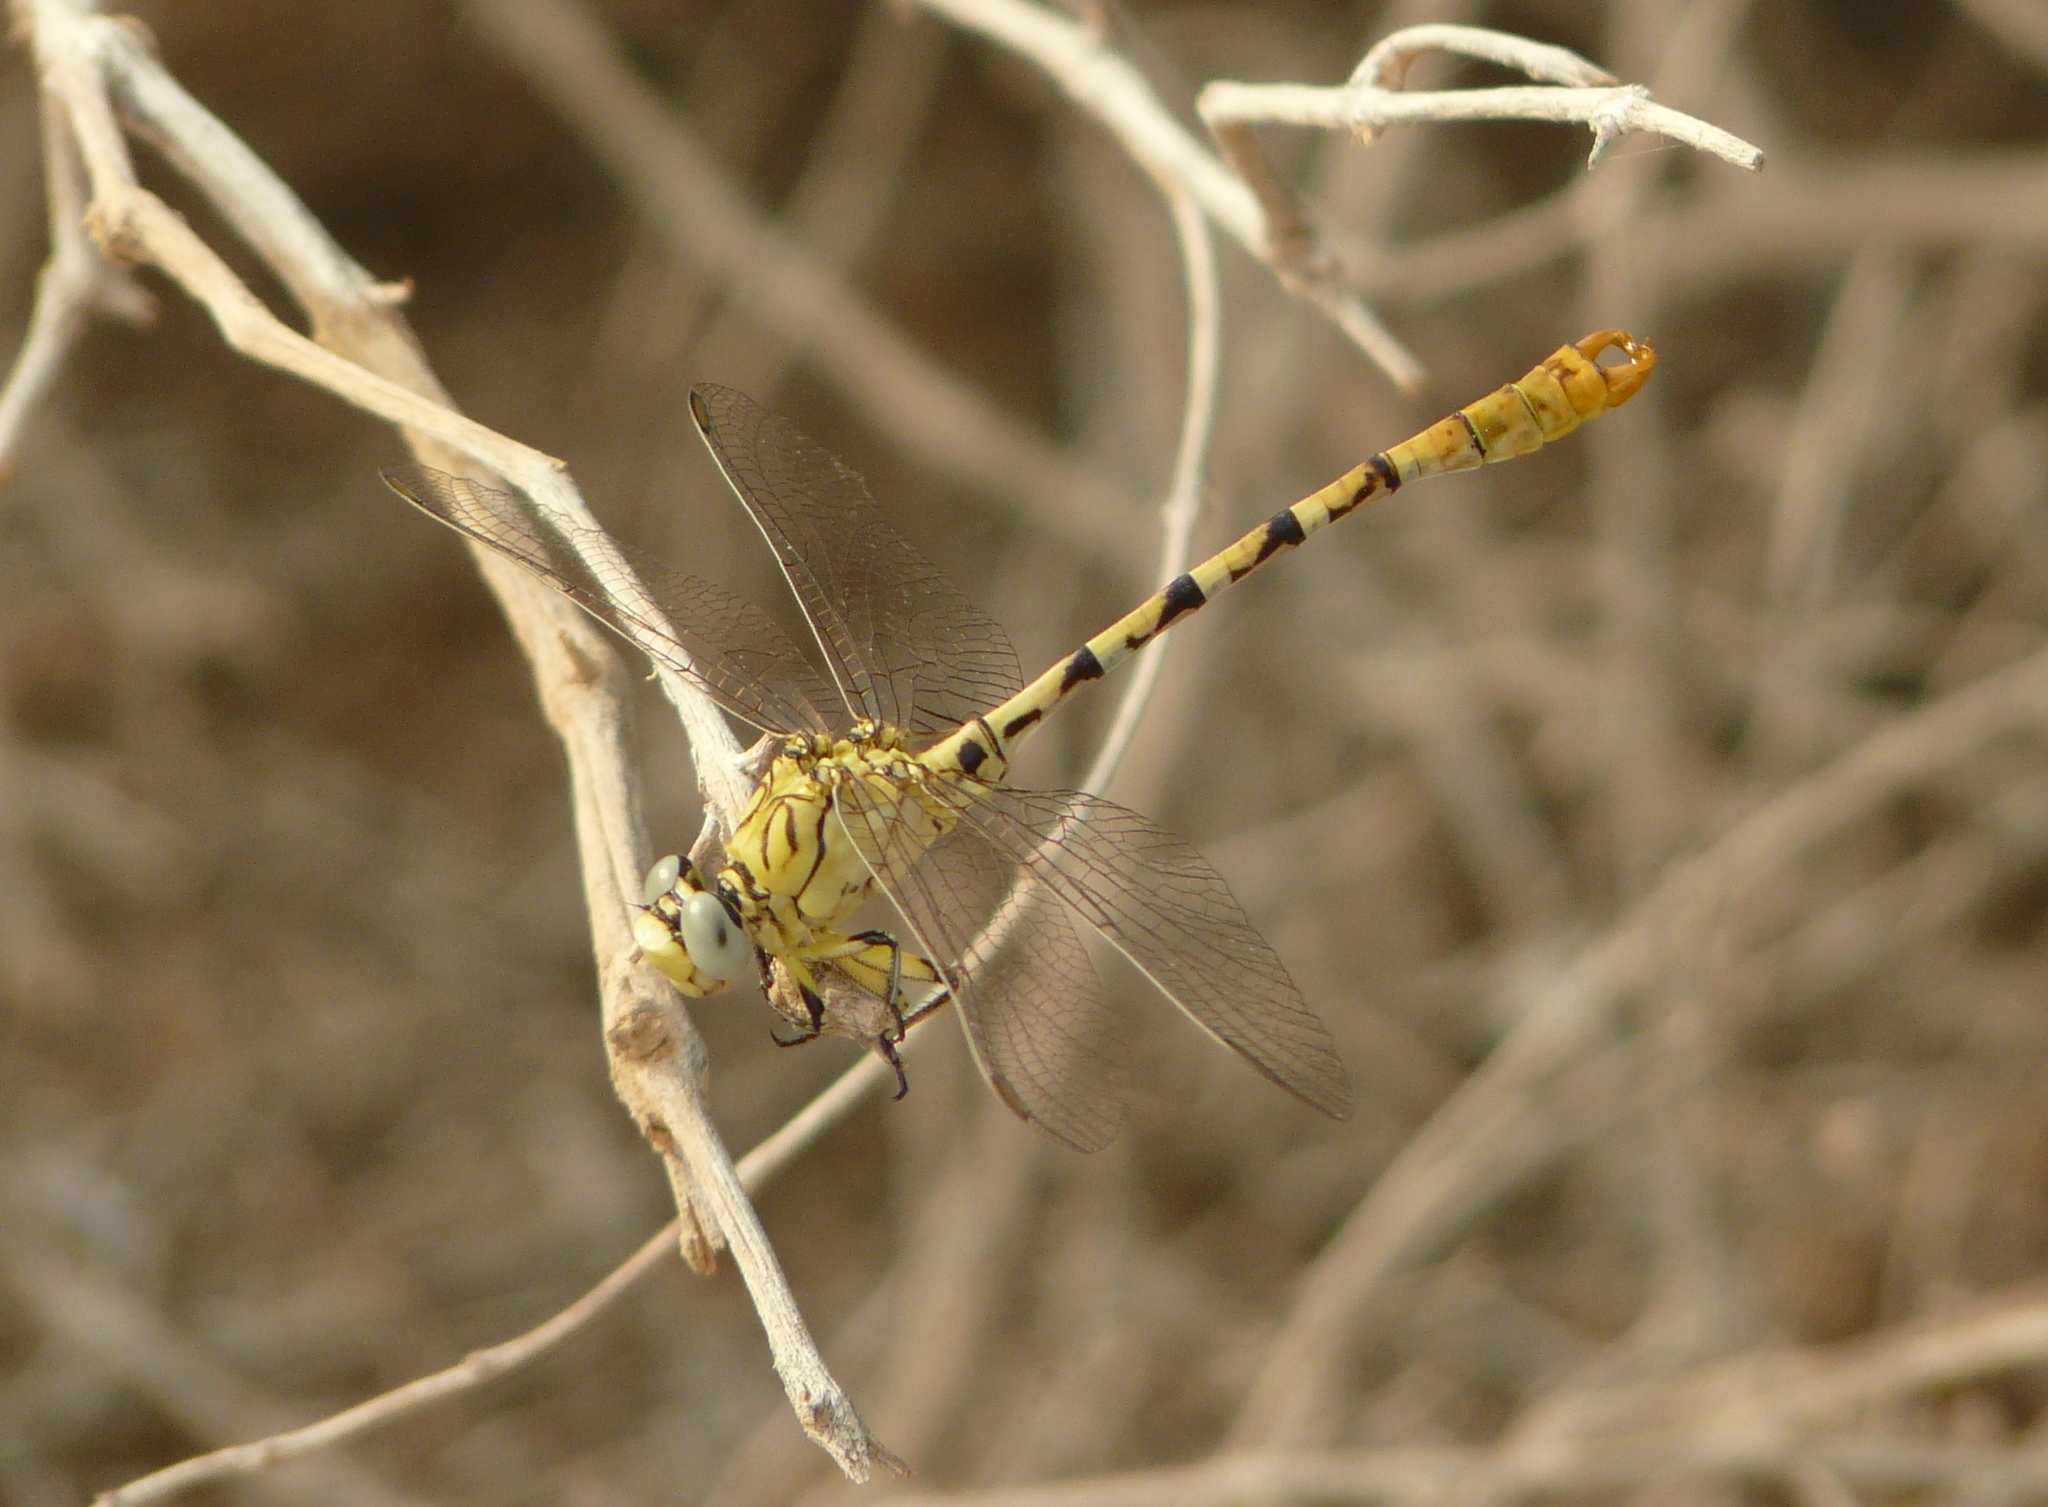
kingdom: Animalia
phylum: Arthropoda
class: Insecta
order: Odonata
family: Gomphidae
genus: Onychogomphus
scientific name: Onychogomphus lefebvrii
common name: Pale pincertail
